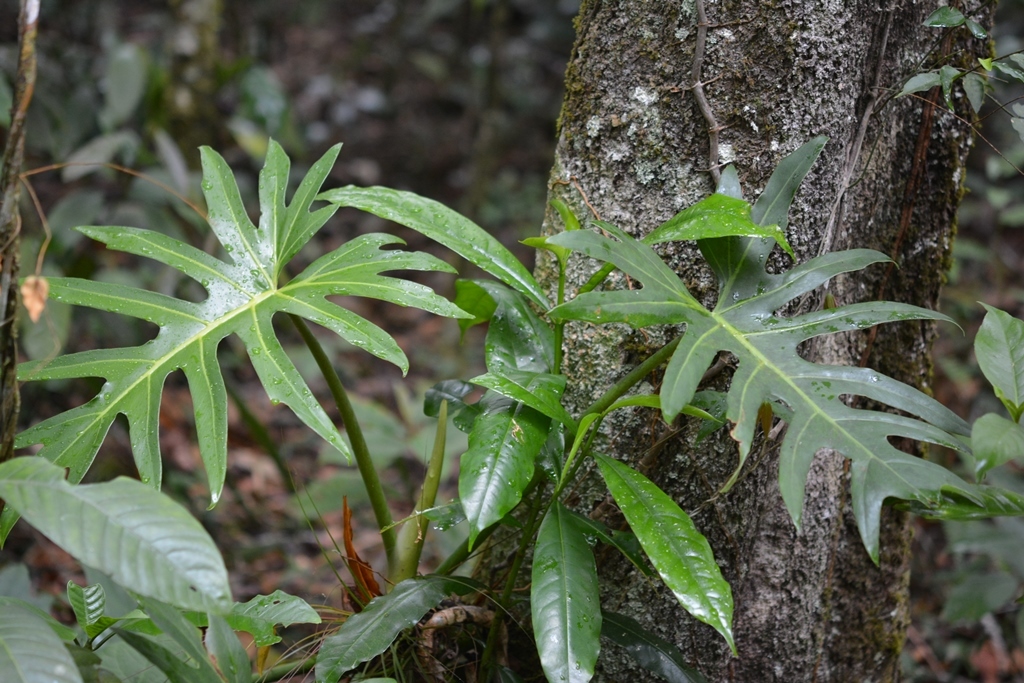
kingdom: Plantae
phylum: Tracheophyta
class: Liliopsida
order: Alismatales
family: Araceae
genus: Philodendron
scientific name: Philodendron radiatum
